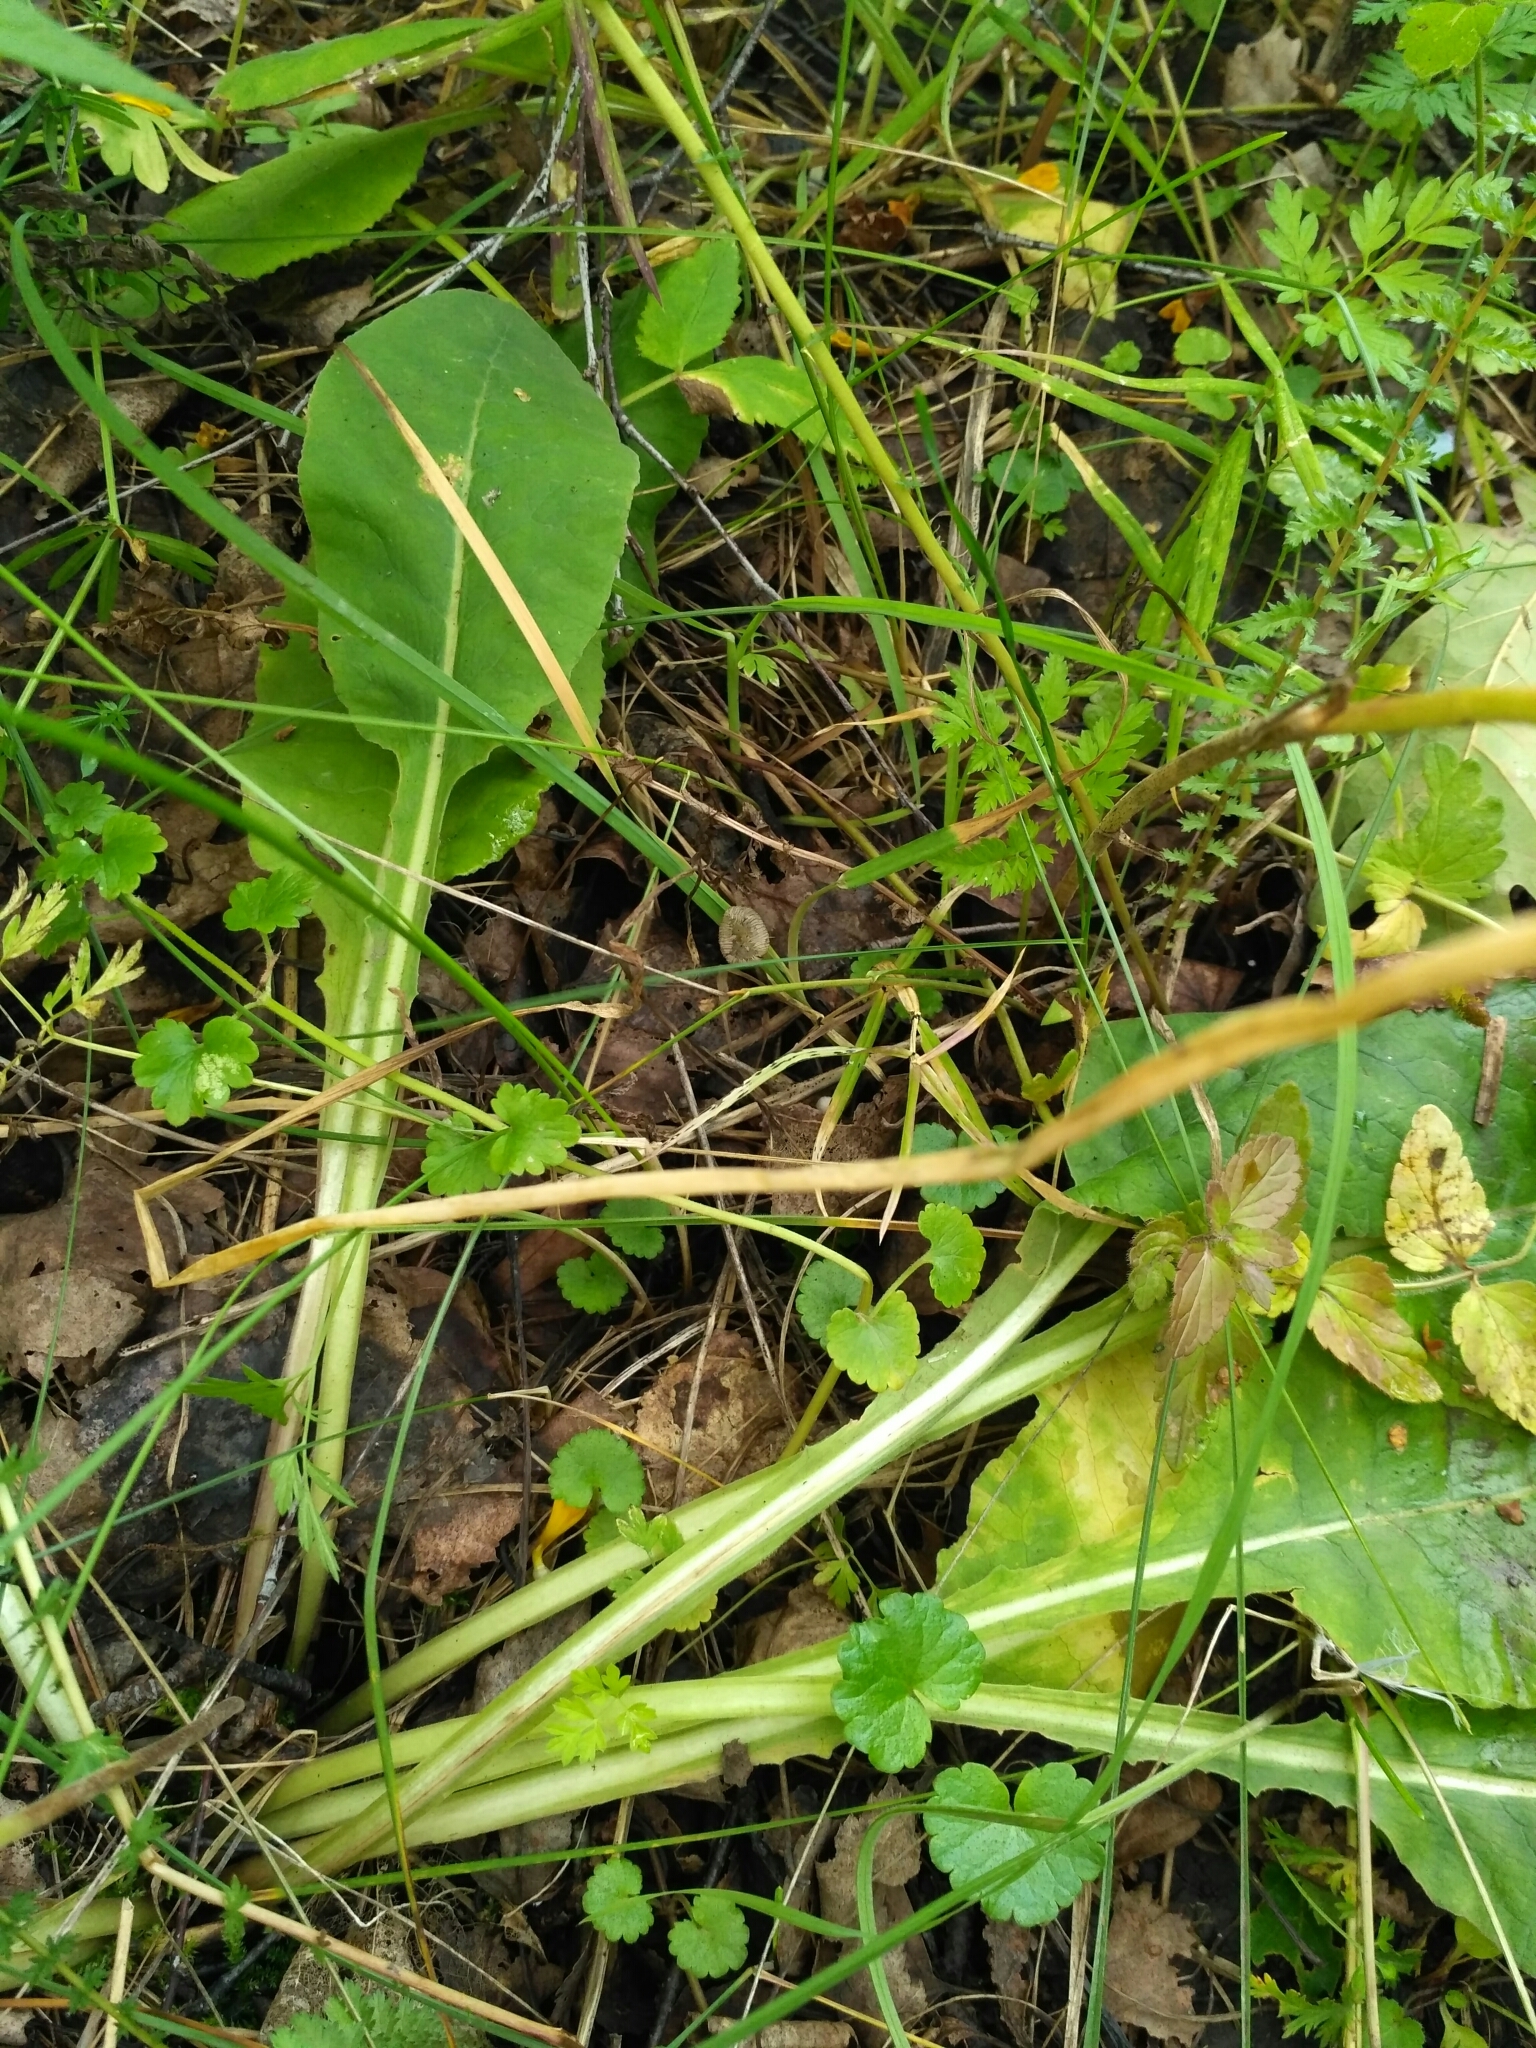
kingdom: Plantae
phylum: Tracheophyta
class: Magnoliopsida
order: Ericales
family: Primulaceae
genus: Primula
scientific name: Primula veris
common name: Cowslip
